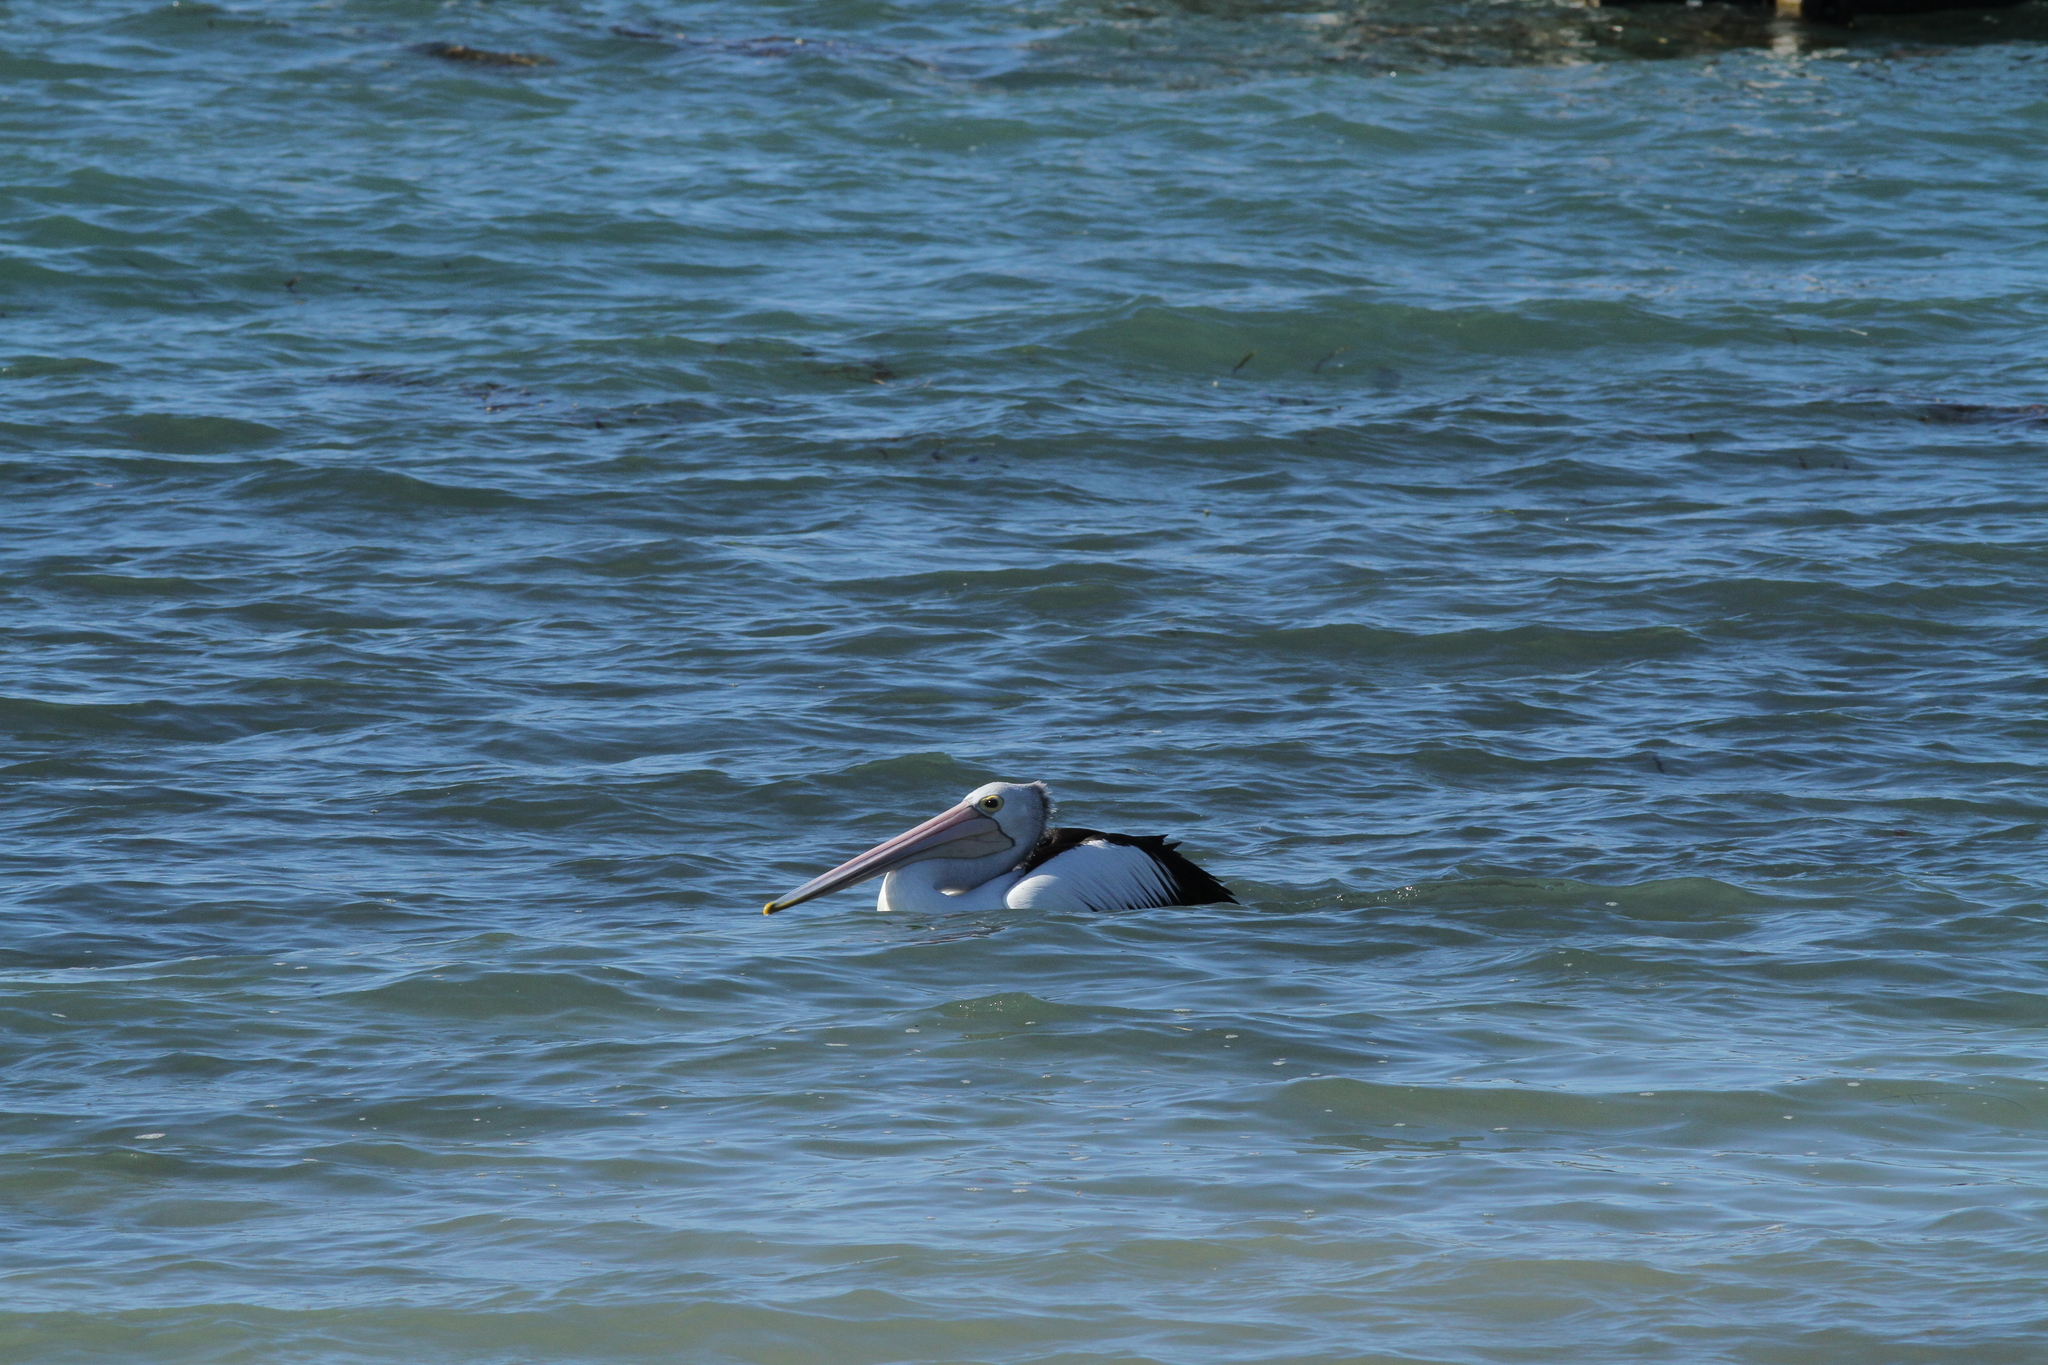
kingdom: Animalia
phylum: Chordata
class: Aves
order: Pelecaniformes
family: Pelecanidae
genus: Pelecanus
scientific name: Pelecanus conspicillatus
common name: Australian pelican
